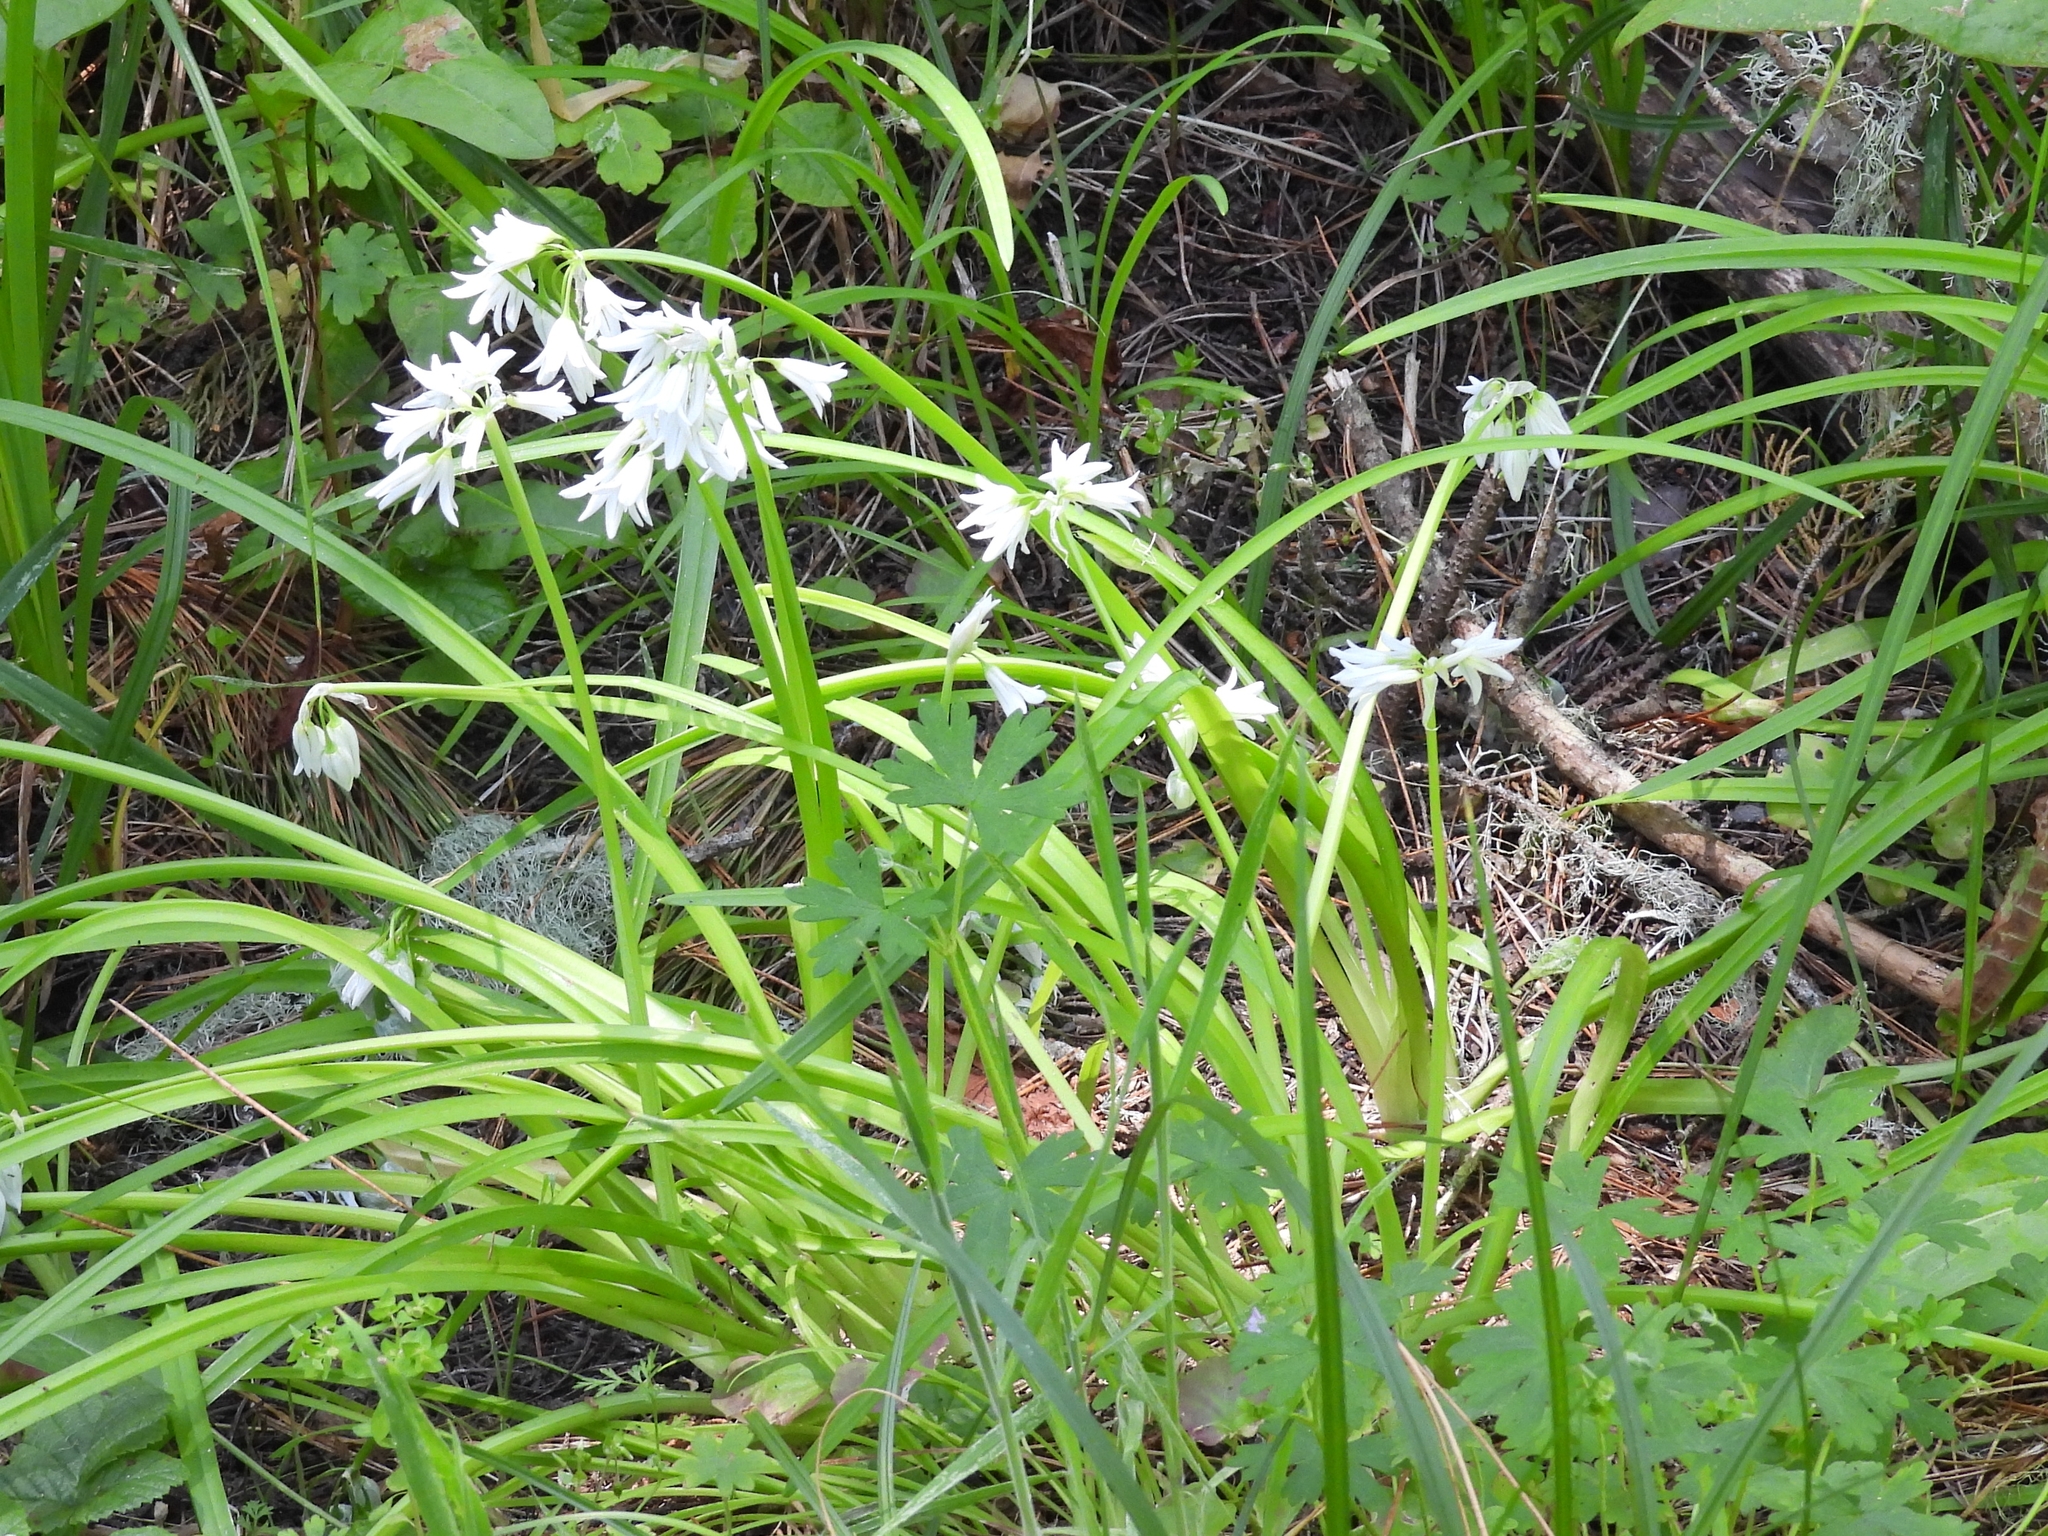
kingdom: Plantae
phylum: Tracheophyta
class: Liliopsida
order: Asparagales
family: Amaryllidaceae
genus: Allium
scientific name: Allium triquetrum
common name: Three-cornered garlic
